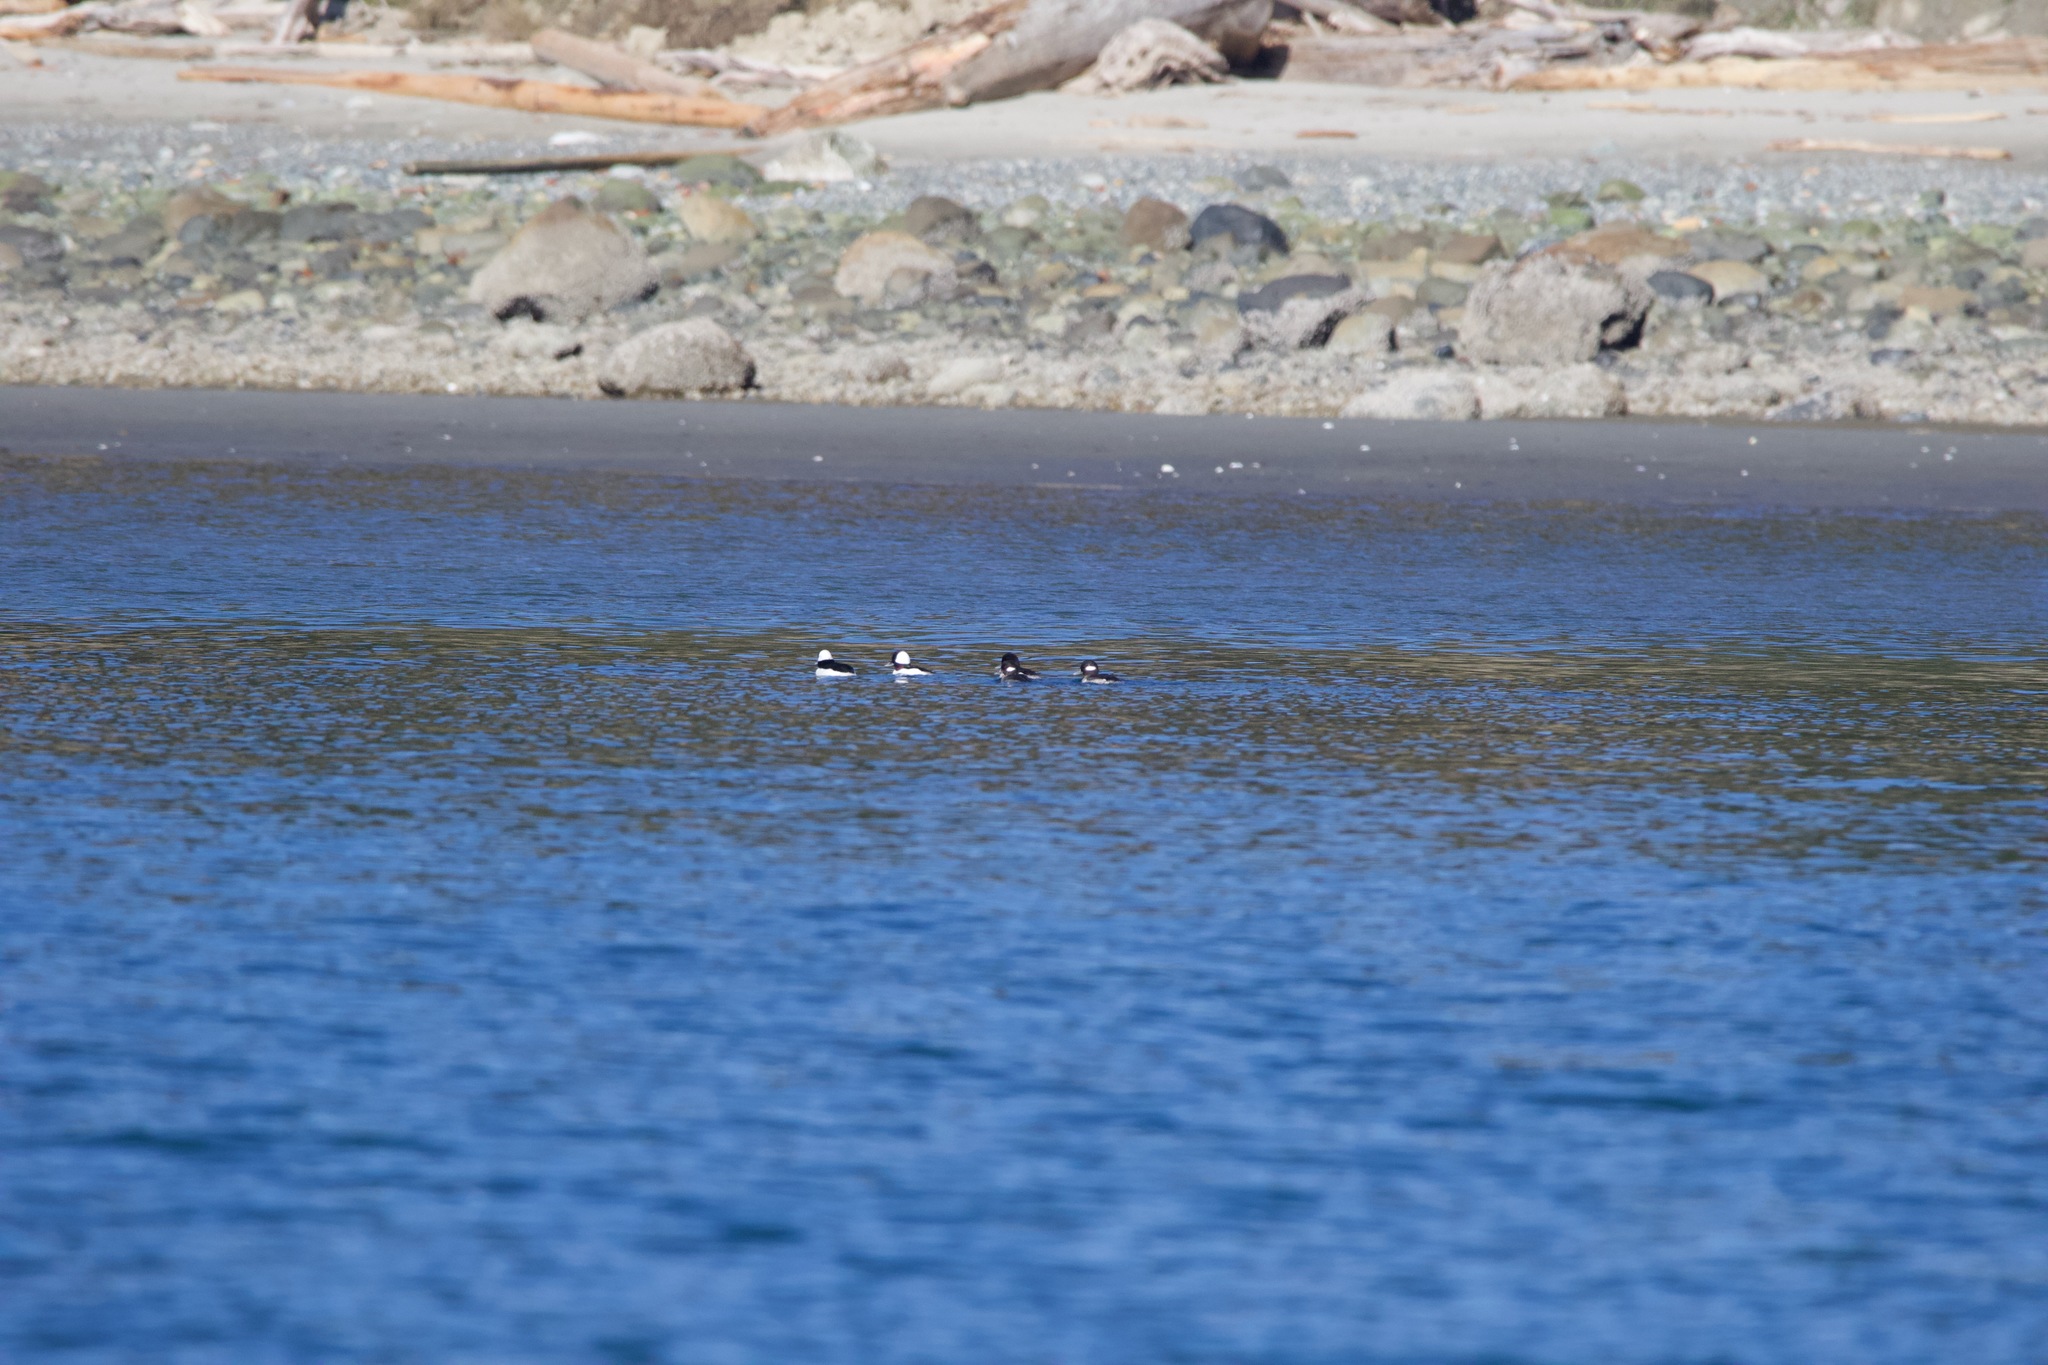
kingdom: Animalia
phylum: Chordata
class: Aves
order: Anseriformes
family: Anatidae
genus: Bucephala
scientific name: Bucephala albeola
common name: Bufflehead
